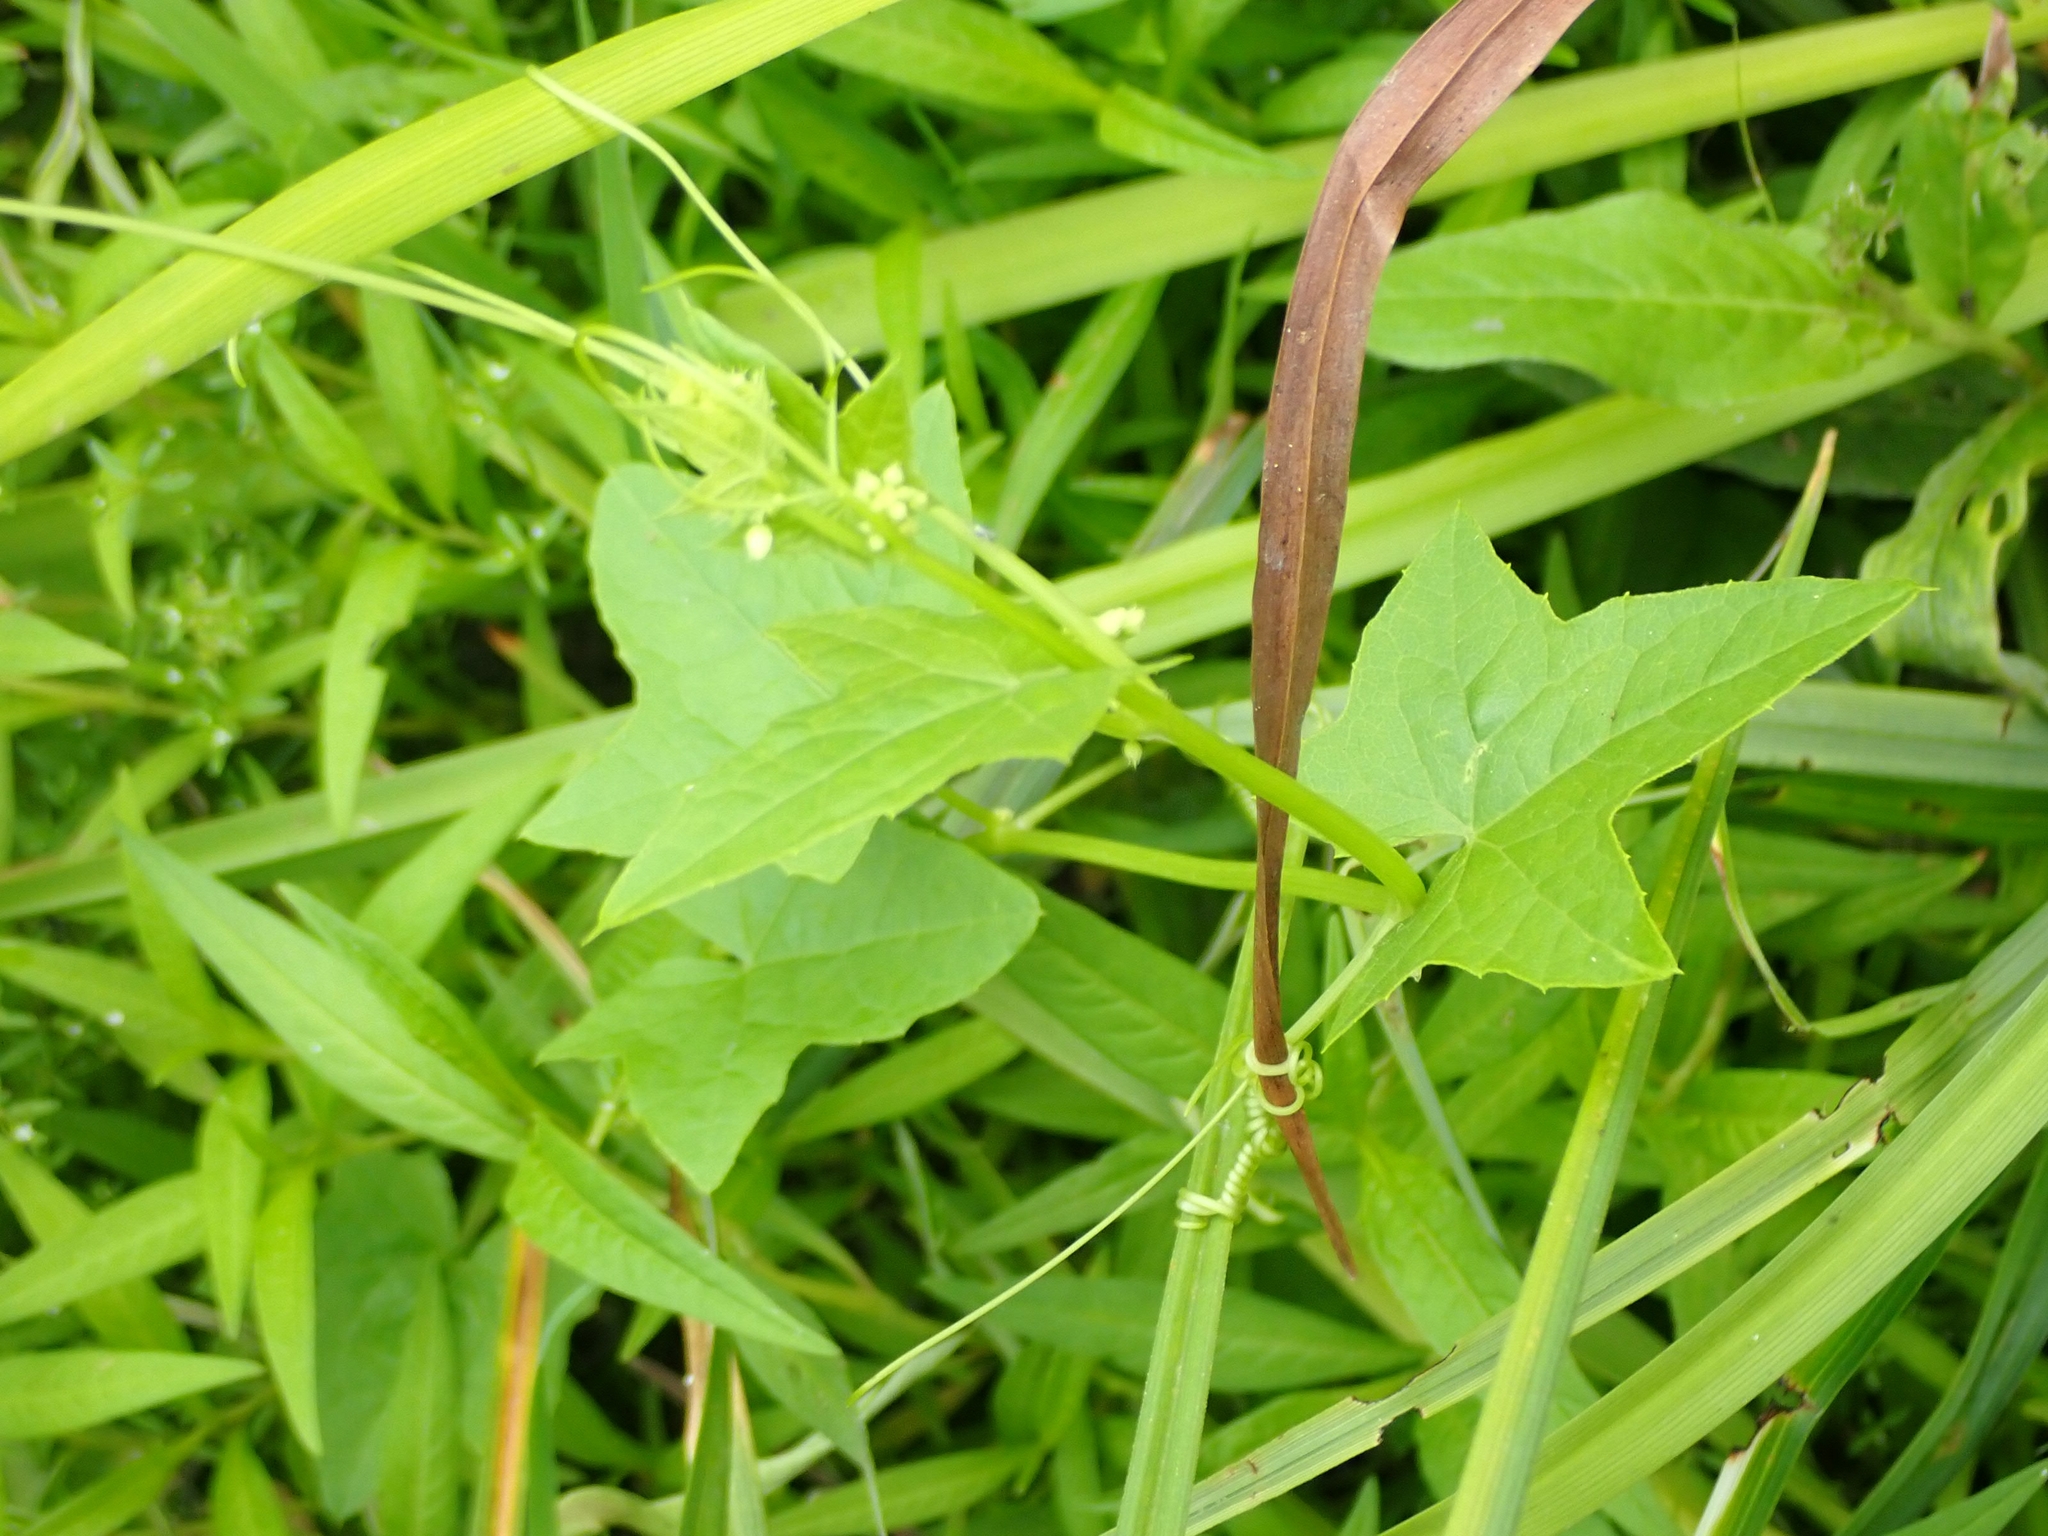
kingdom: Plantae
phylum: Tracheophyta
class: Magnoliopsida
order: Cucurbitales
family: Cucurbitaceae
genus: Echinocystis
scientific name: Echinocystis lobata
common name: Wild cucumber
